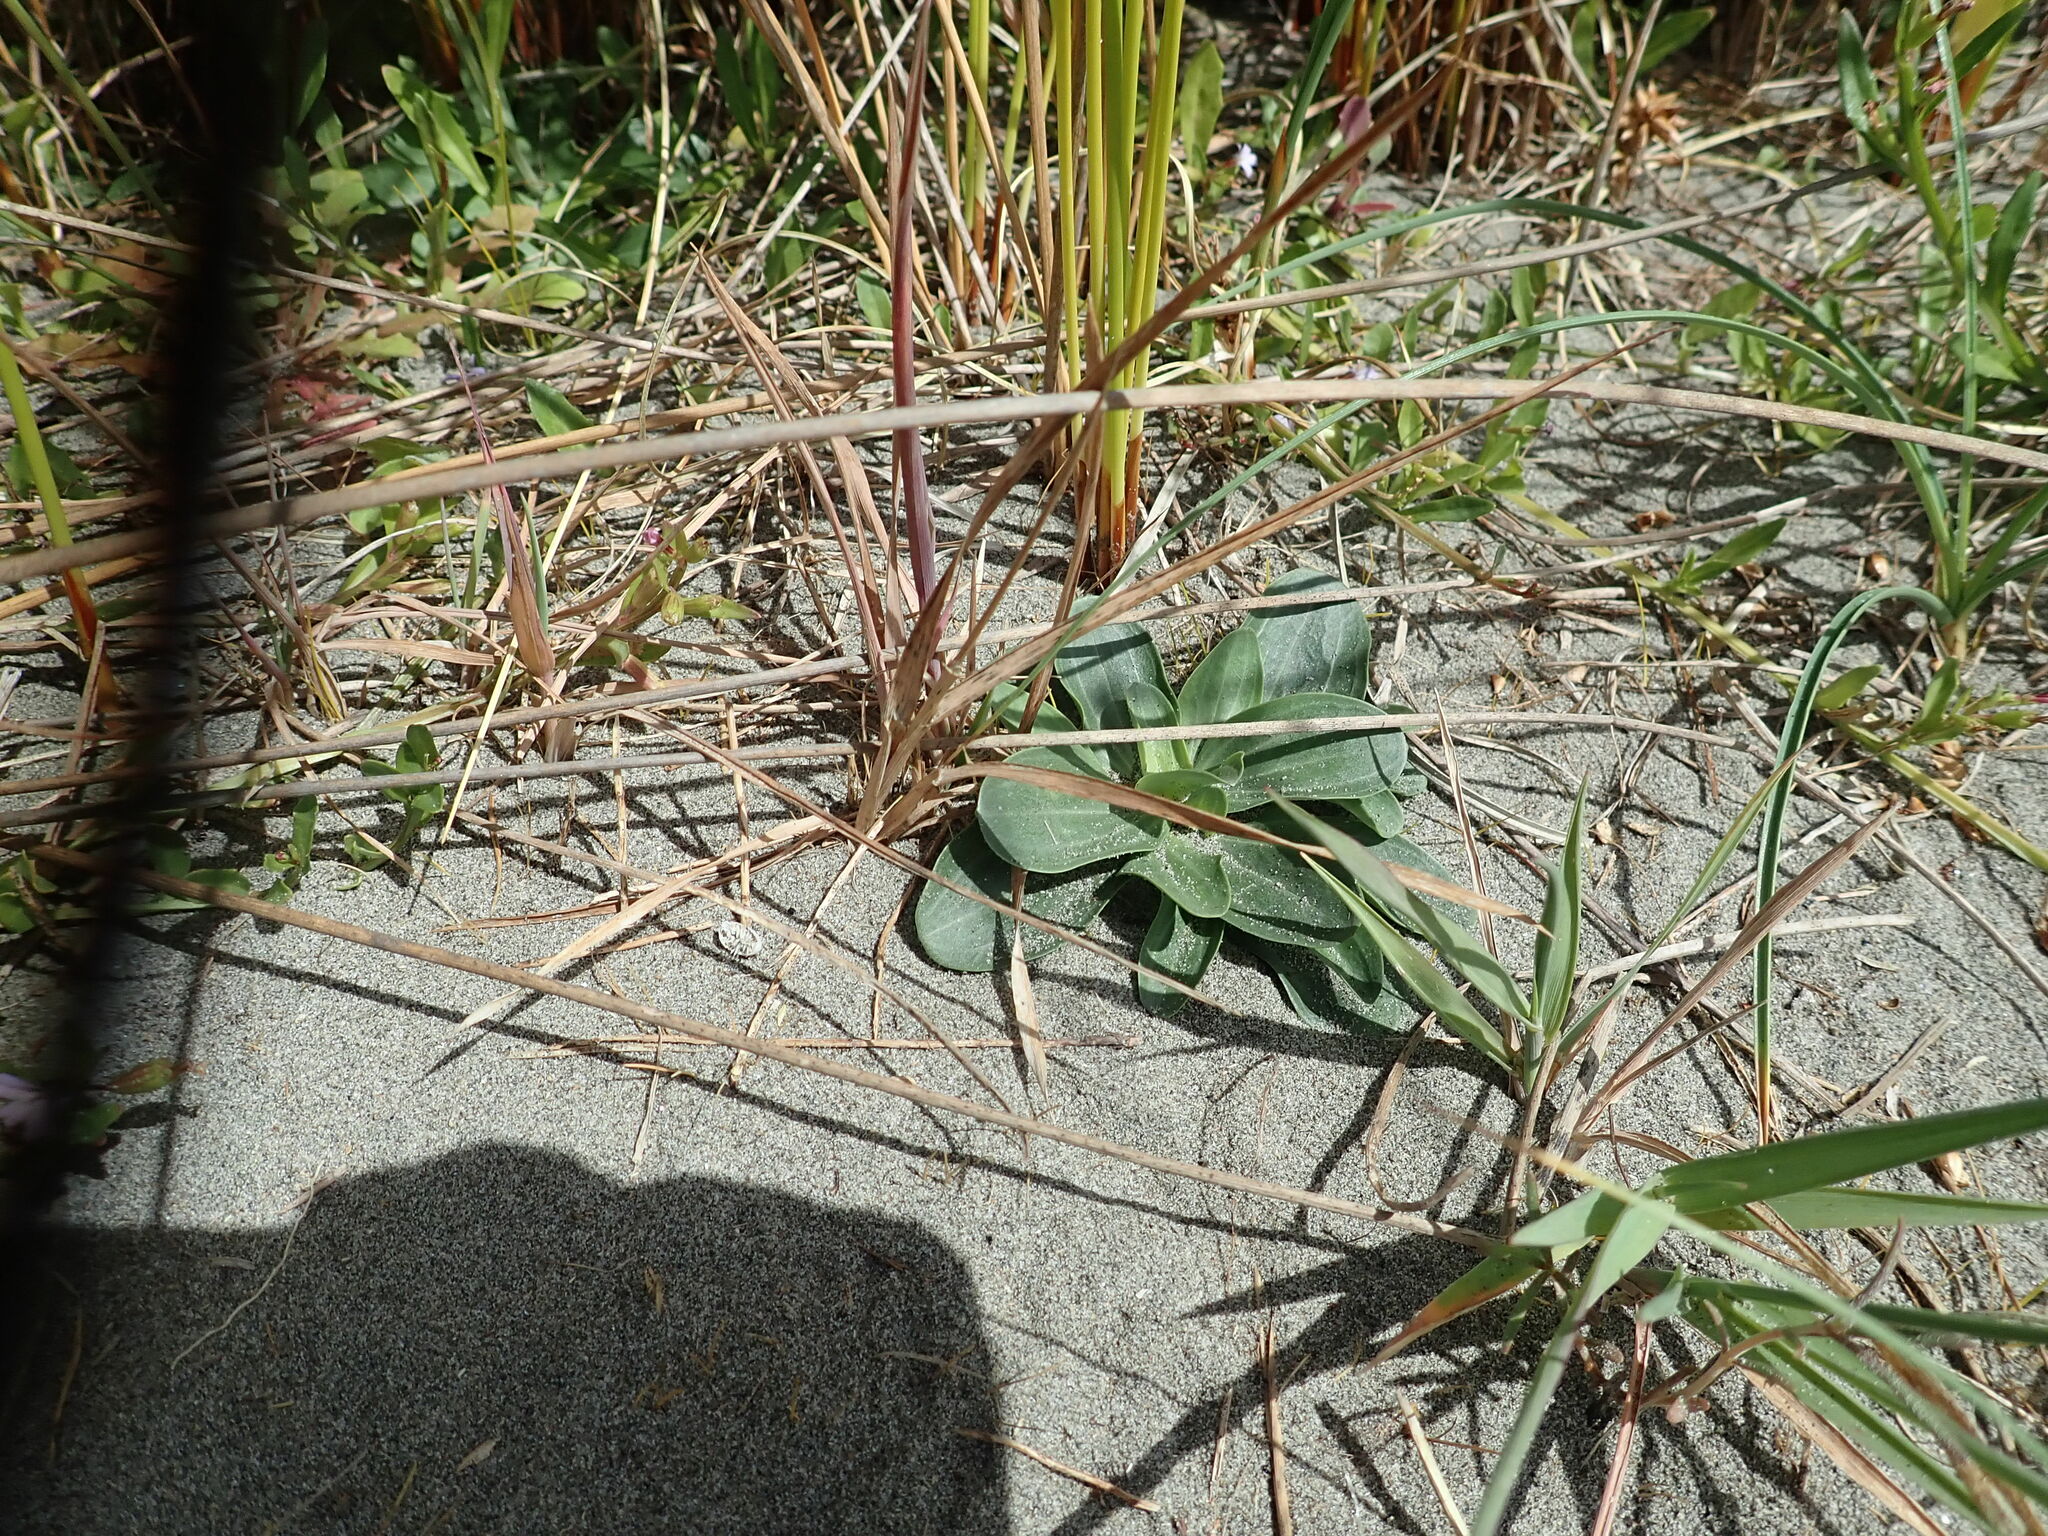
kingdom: Plantae
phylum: Tracheophyta
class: Magnoliopsida
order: Gentianales
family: Gentianaceae
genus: Centaurium
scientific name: Centaurium erythraea
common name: Common centaury
